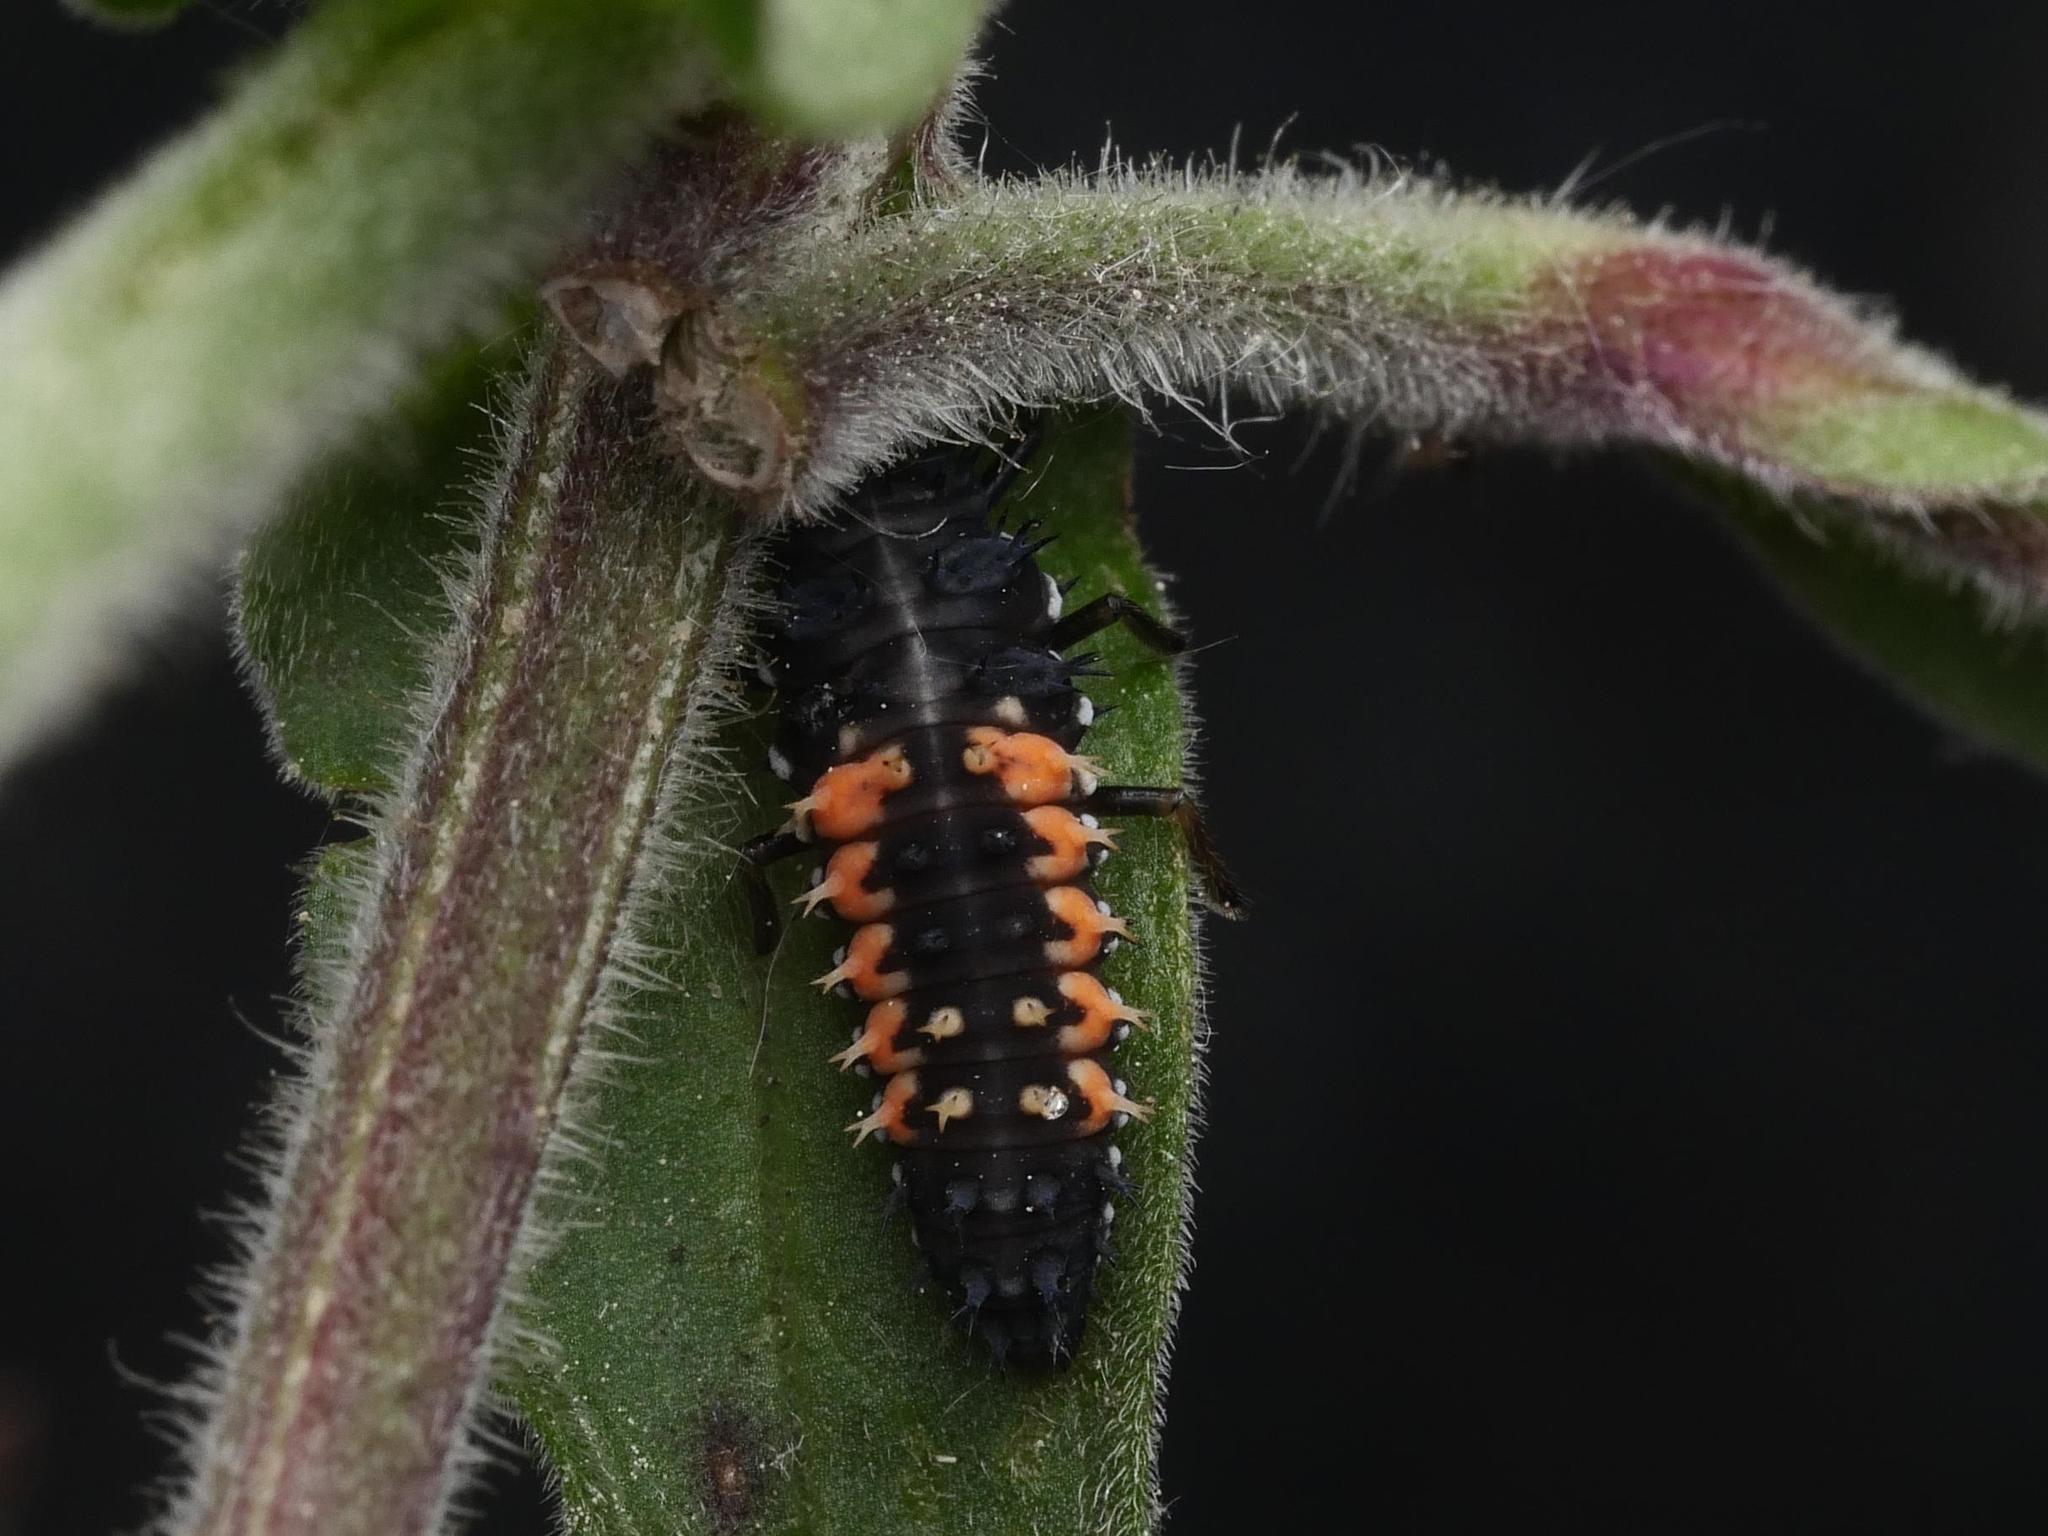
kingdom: Animalia
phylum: Arthropoda
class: Insecta
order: Coleoptera
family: Coccinellidae
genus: Harmonia
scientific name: Harmonia axyridis
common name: Harlequin ladybird
